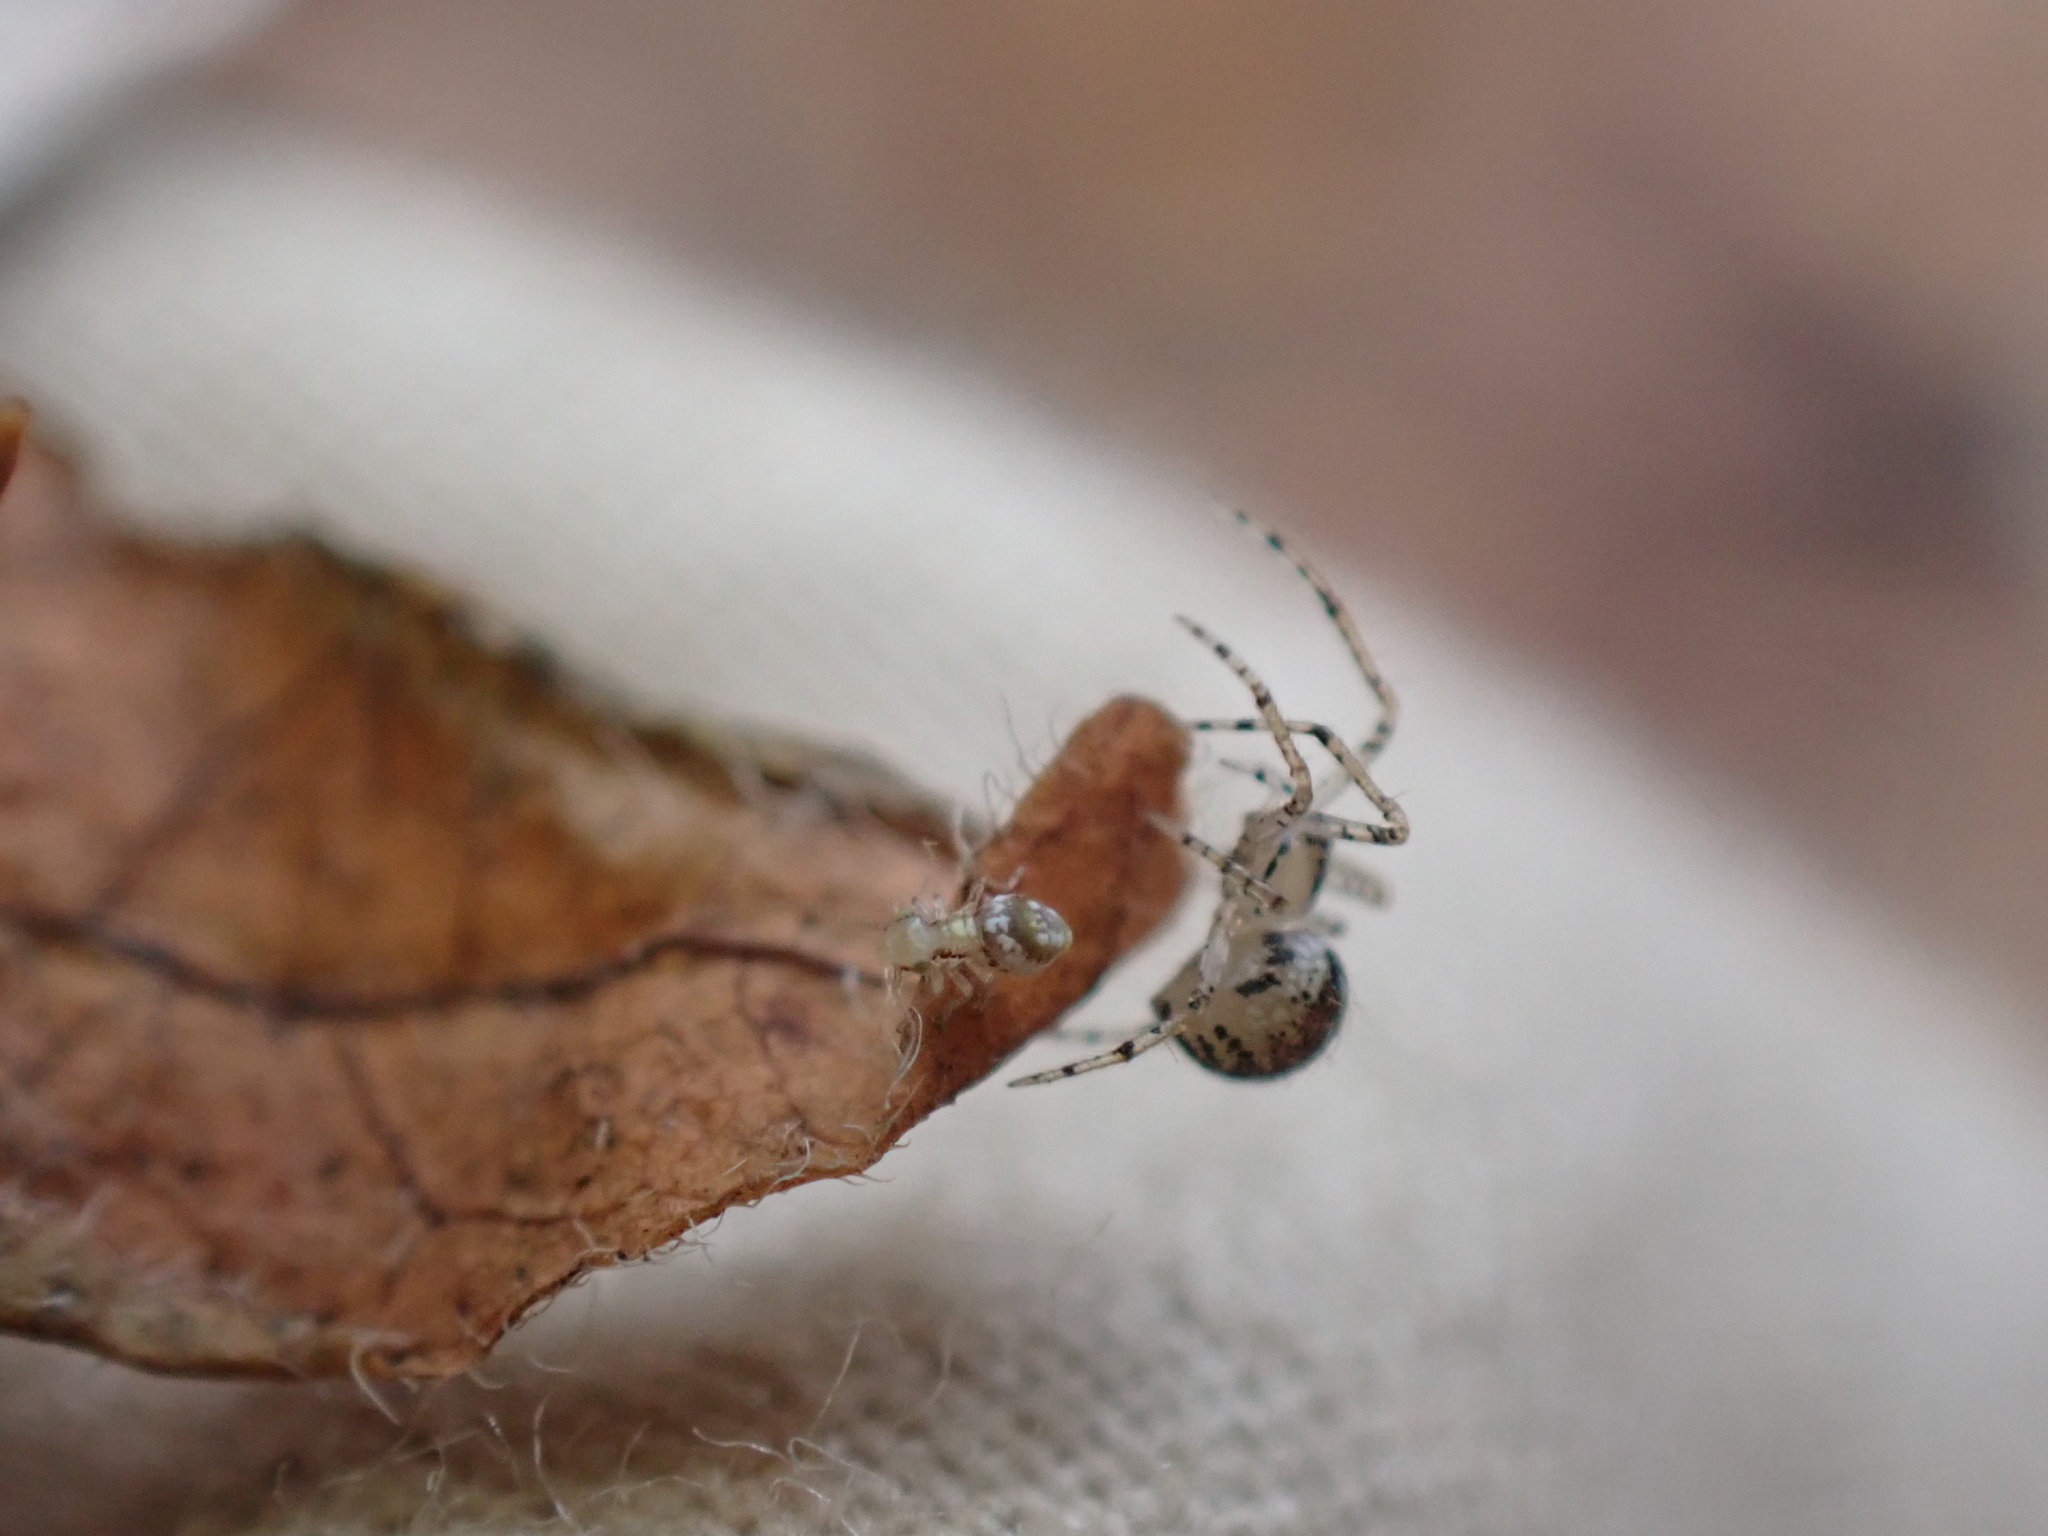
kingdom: Animalia
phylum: Arthropoda
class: Arachnida
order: Araneae
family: Theridiidae
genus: Platnickina
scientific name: Platnickina tincta
